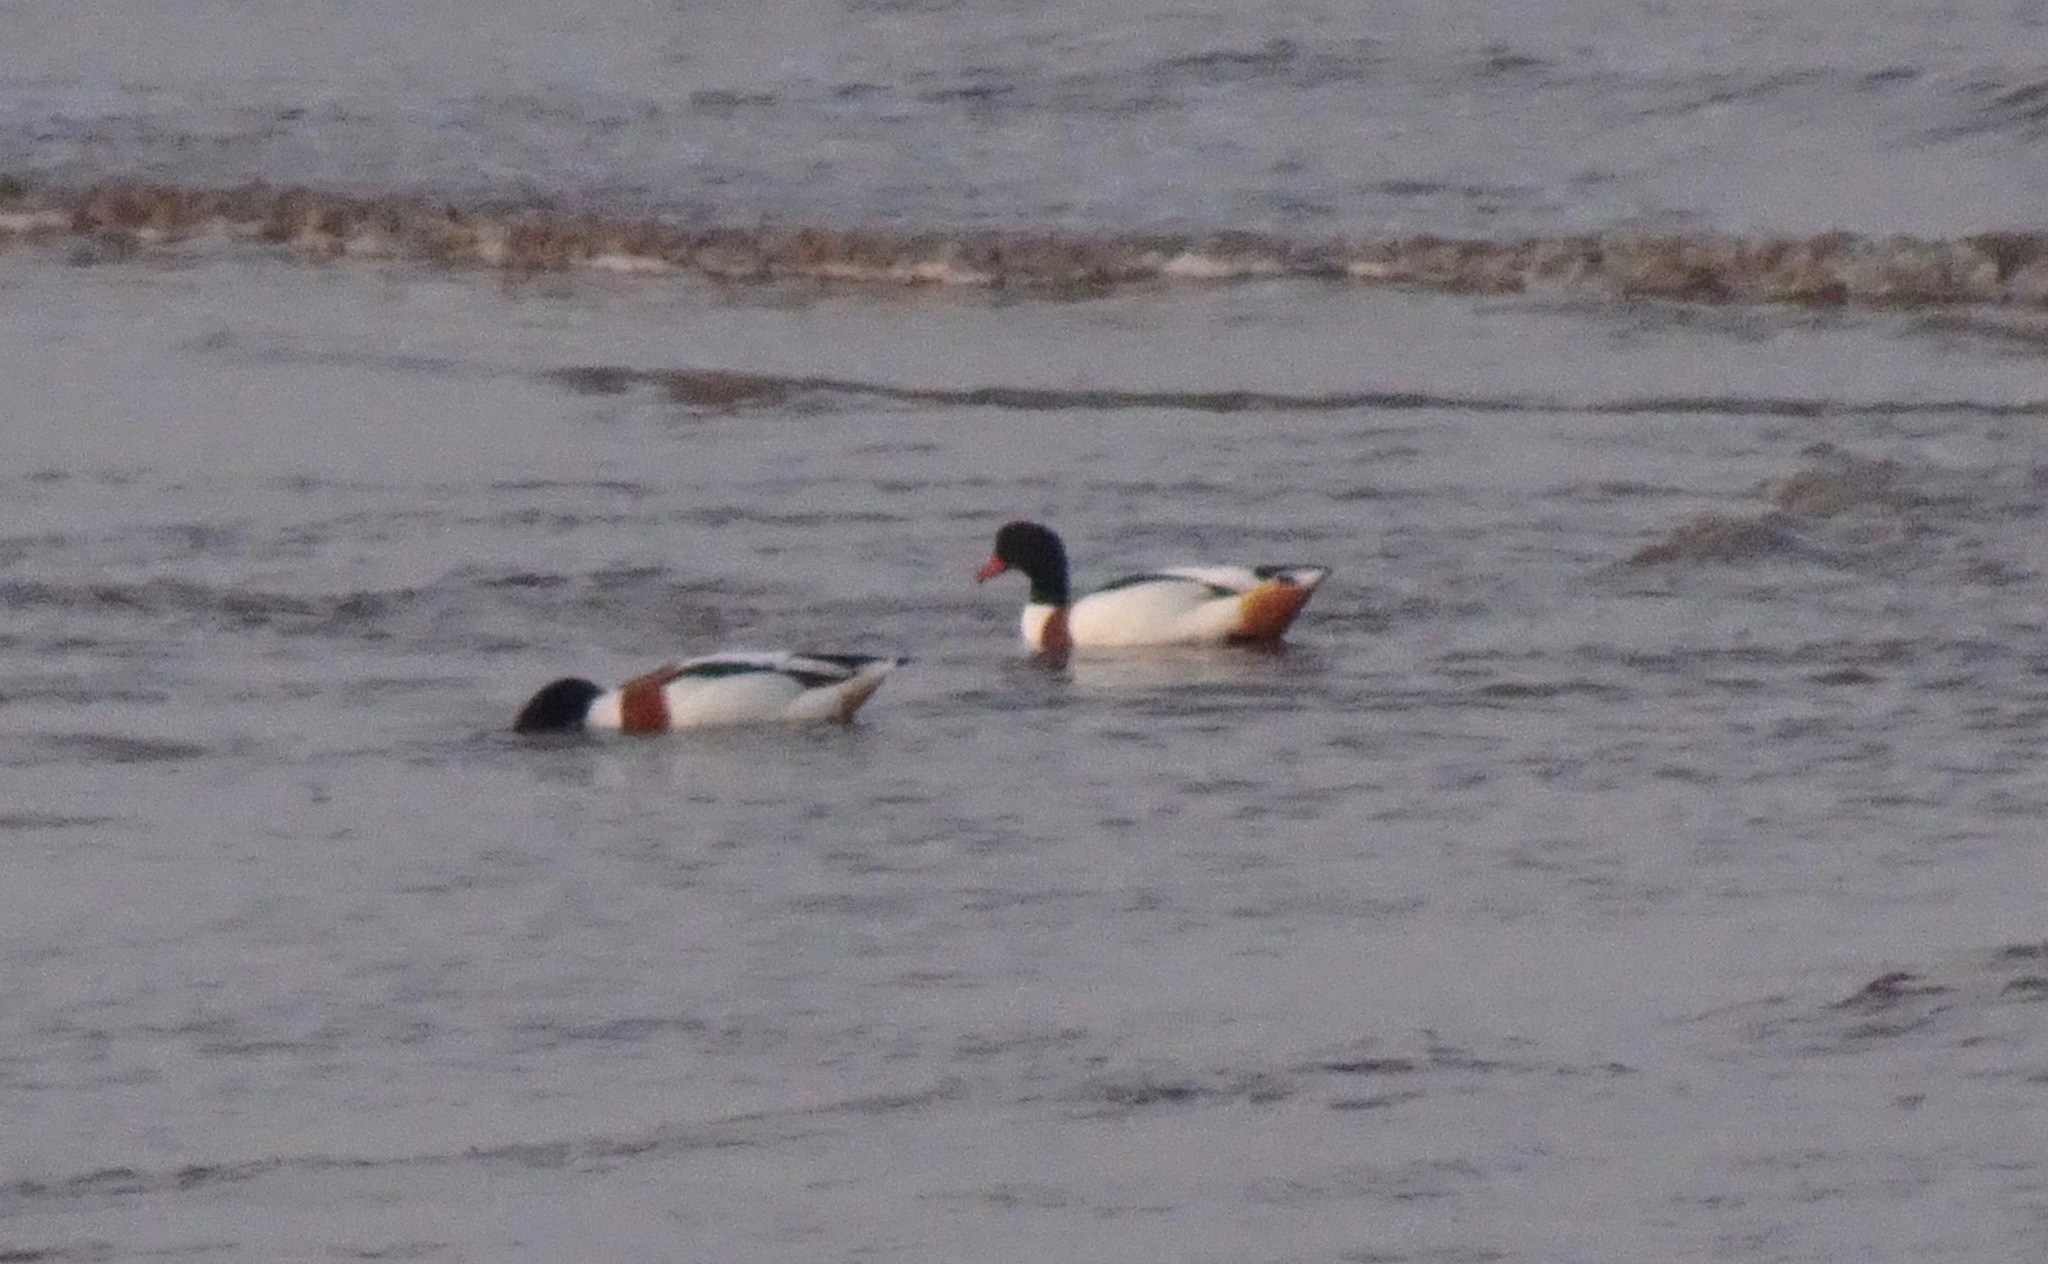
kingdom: Animalia
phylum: Chordata
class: Aves
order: Anseriformes
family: Anatidae
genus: Tadorna
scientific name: Tadorna tadorna
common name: Common shelduck
